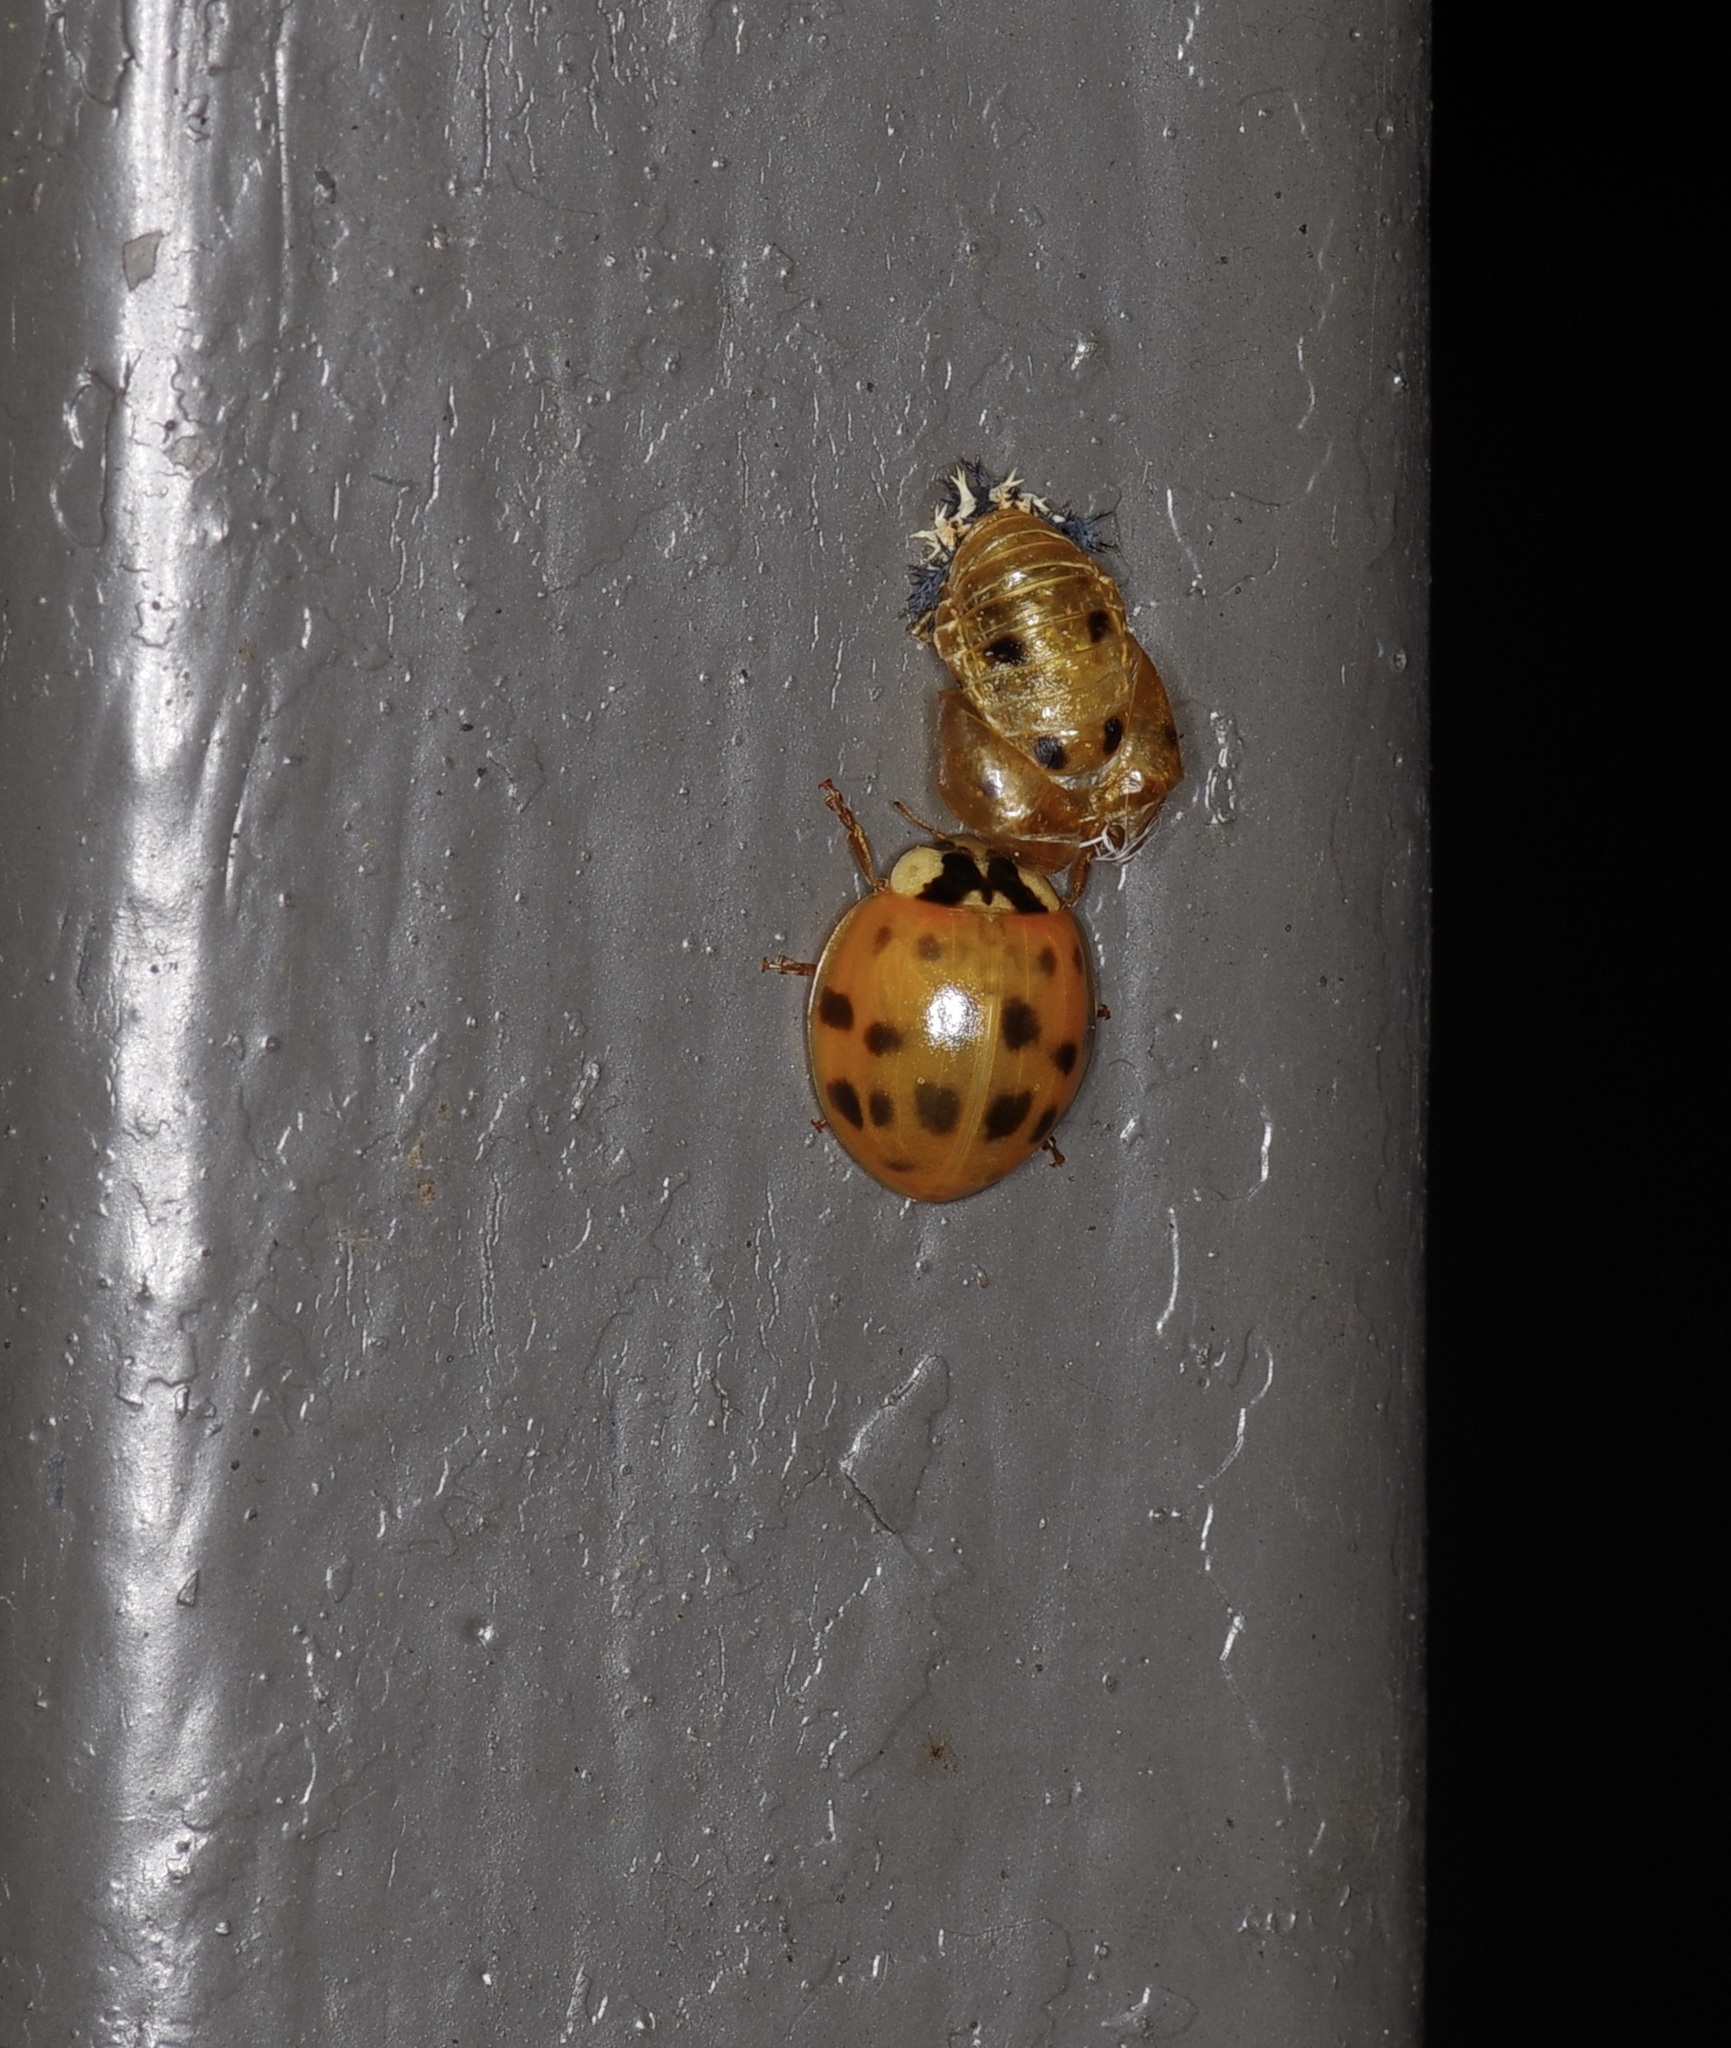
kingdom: Animalia
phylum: Arthropoda
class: Insecta
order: Coleoptera
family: Coccinellidae
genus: Harmonia
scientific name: Harmonia axyridis
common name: Harlequin ladybird
